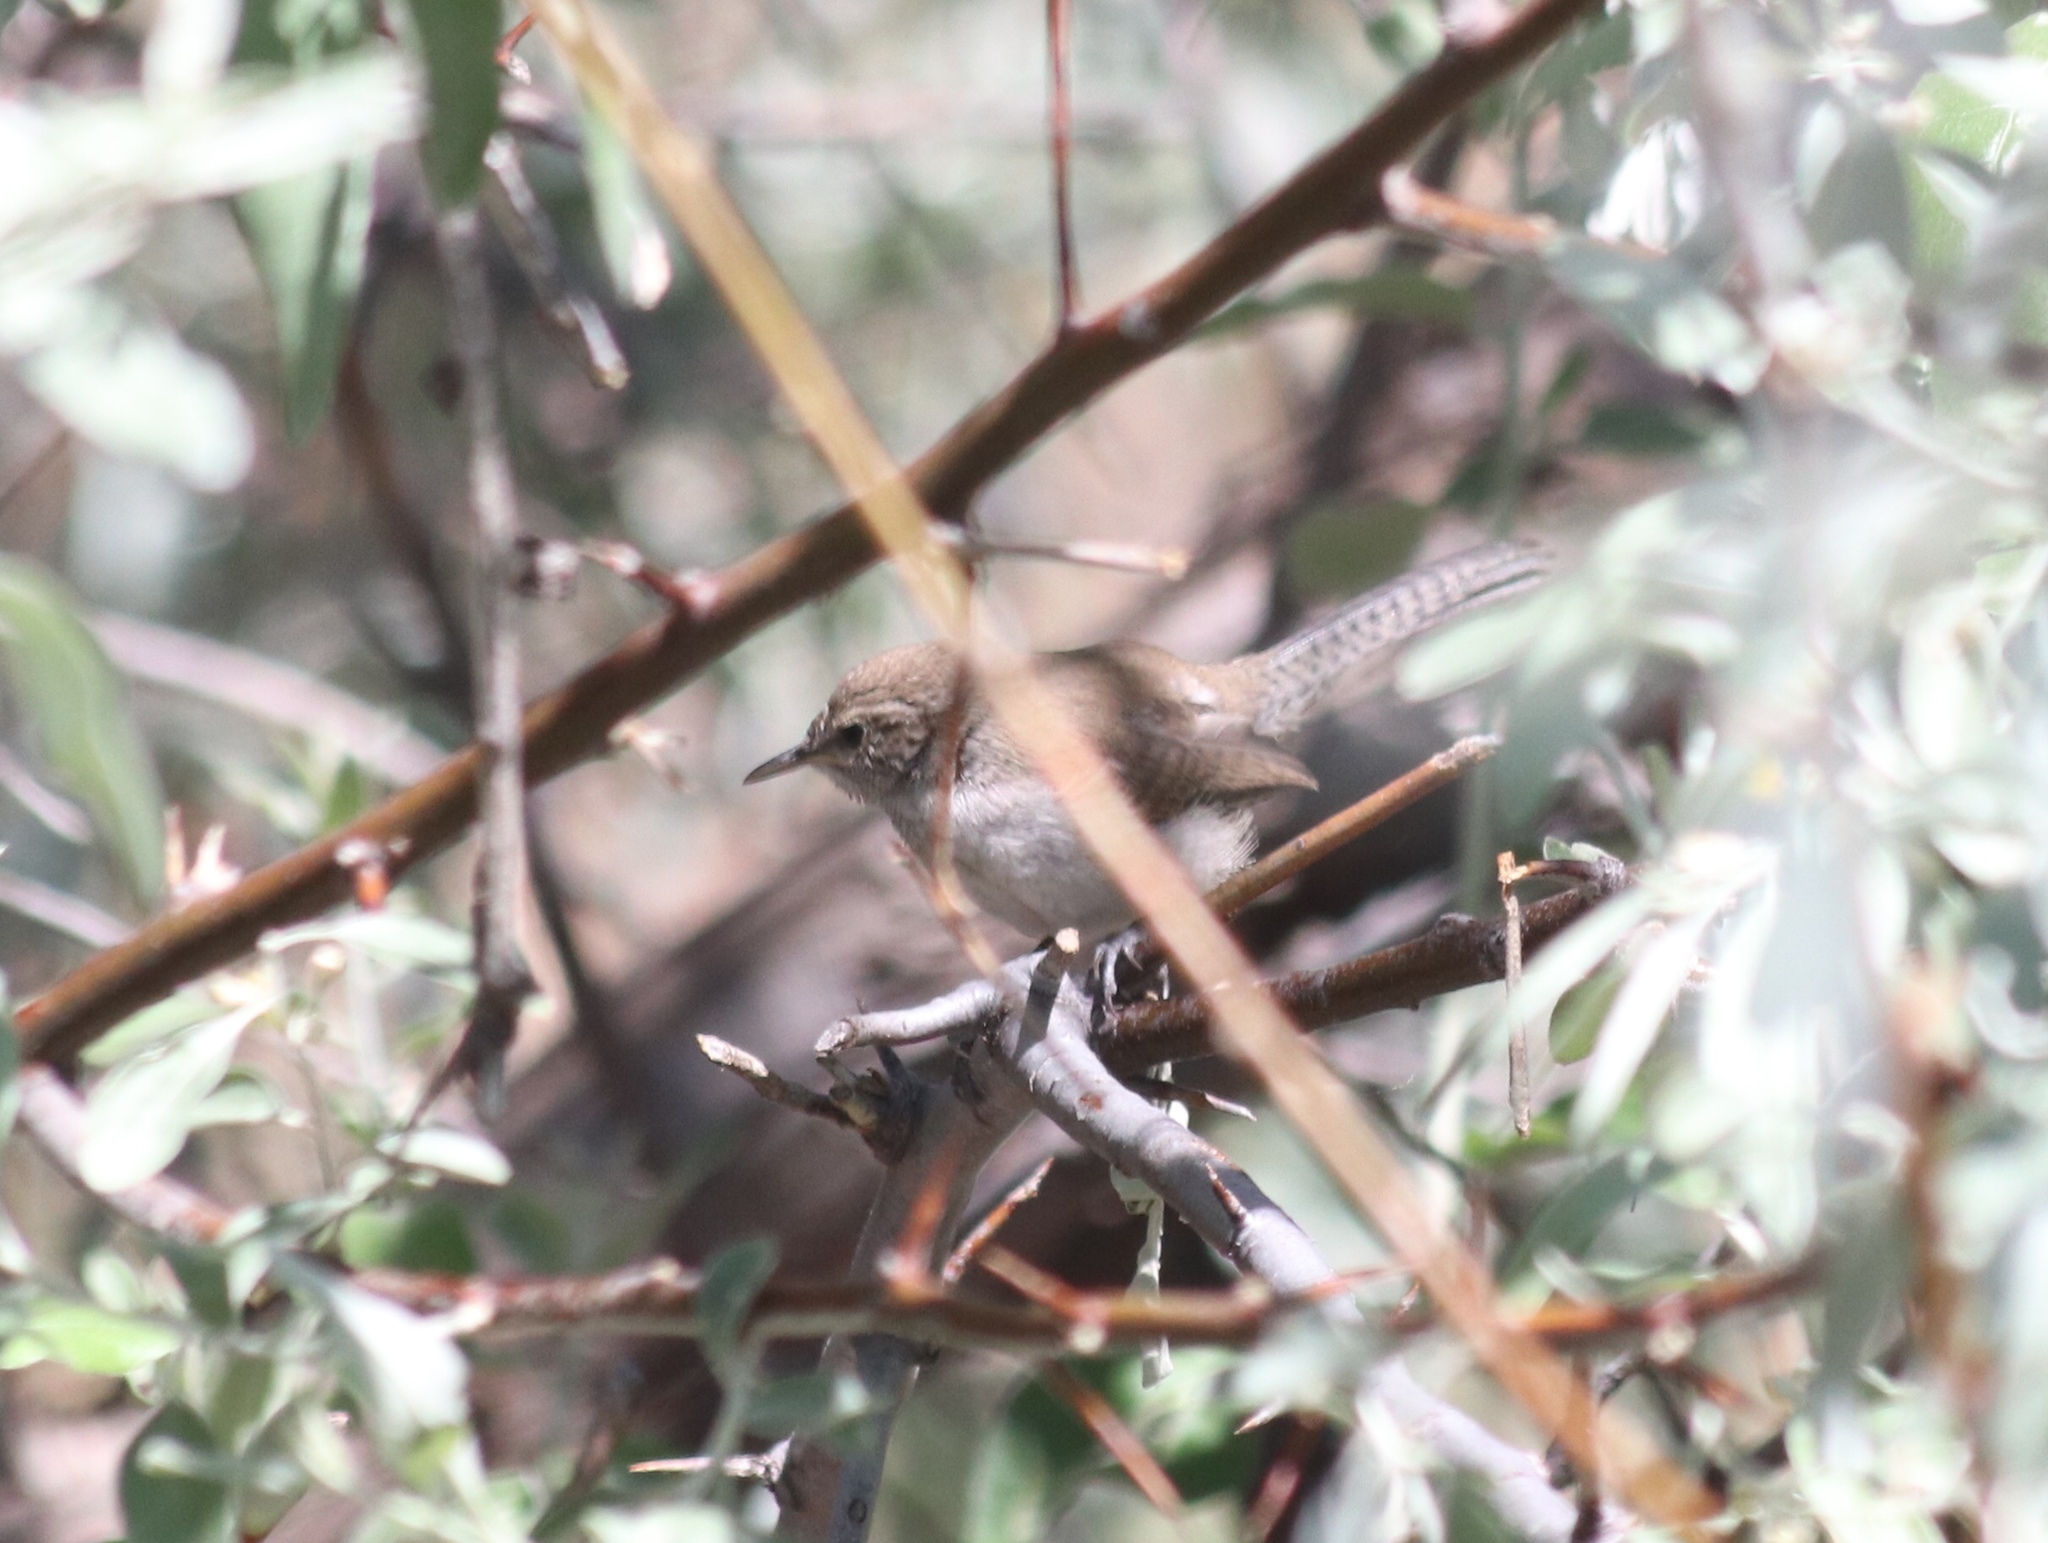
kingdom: Animalia
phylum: Chordata
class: Aves
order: Passeriformes
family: Troglodytidae
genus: Troglodytes
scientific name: Troglodytes aedon
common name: House wren
